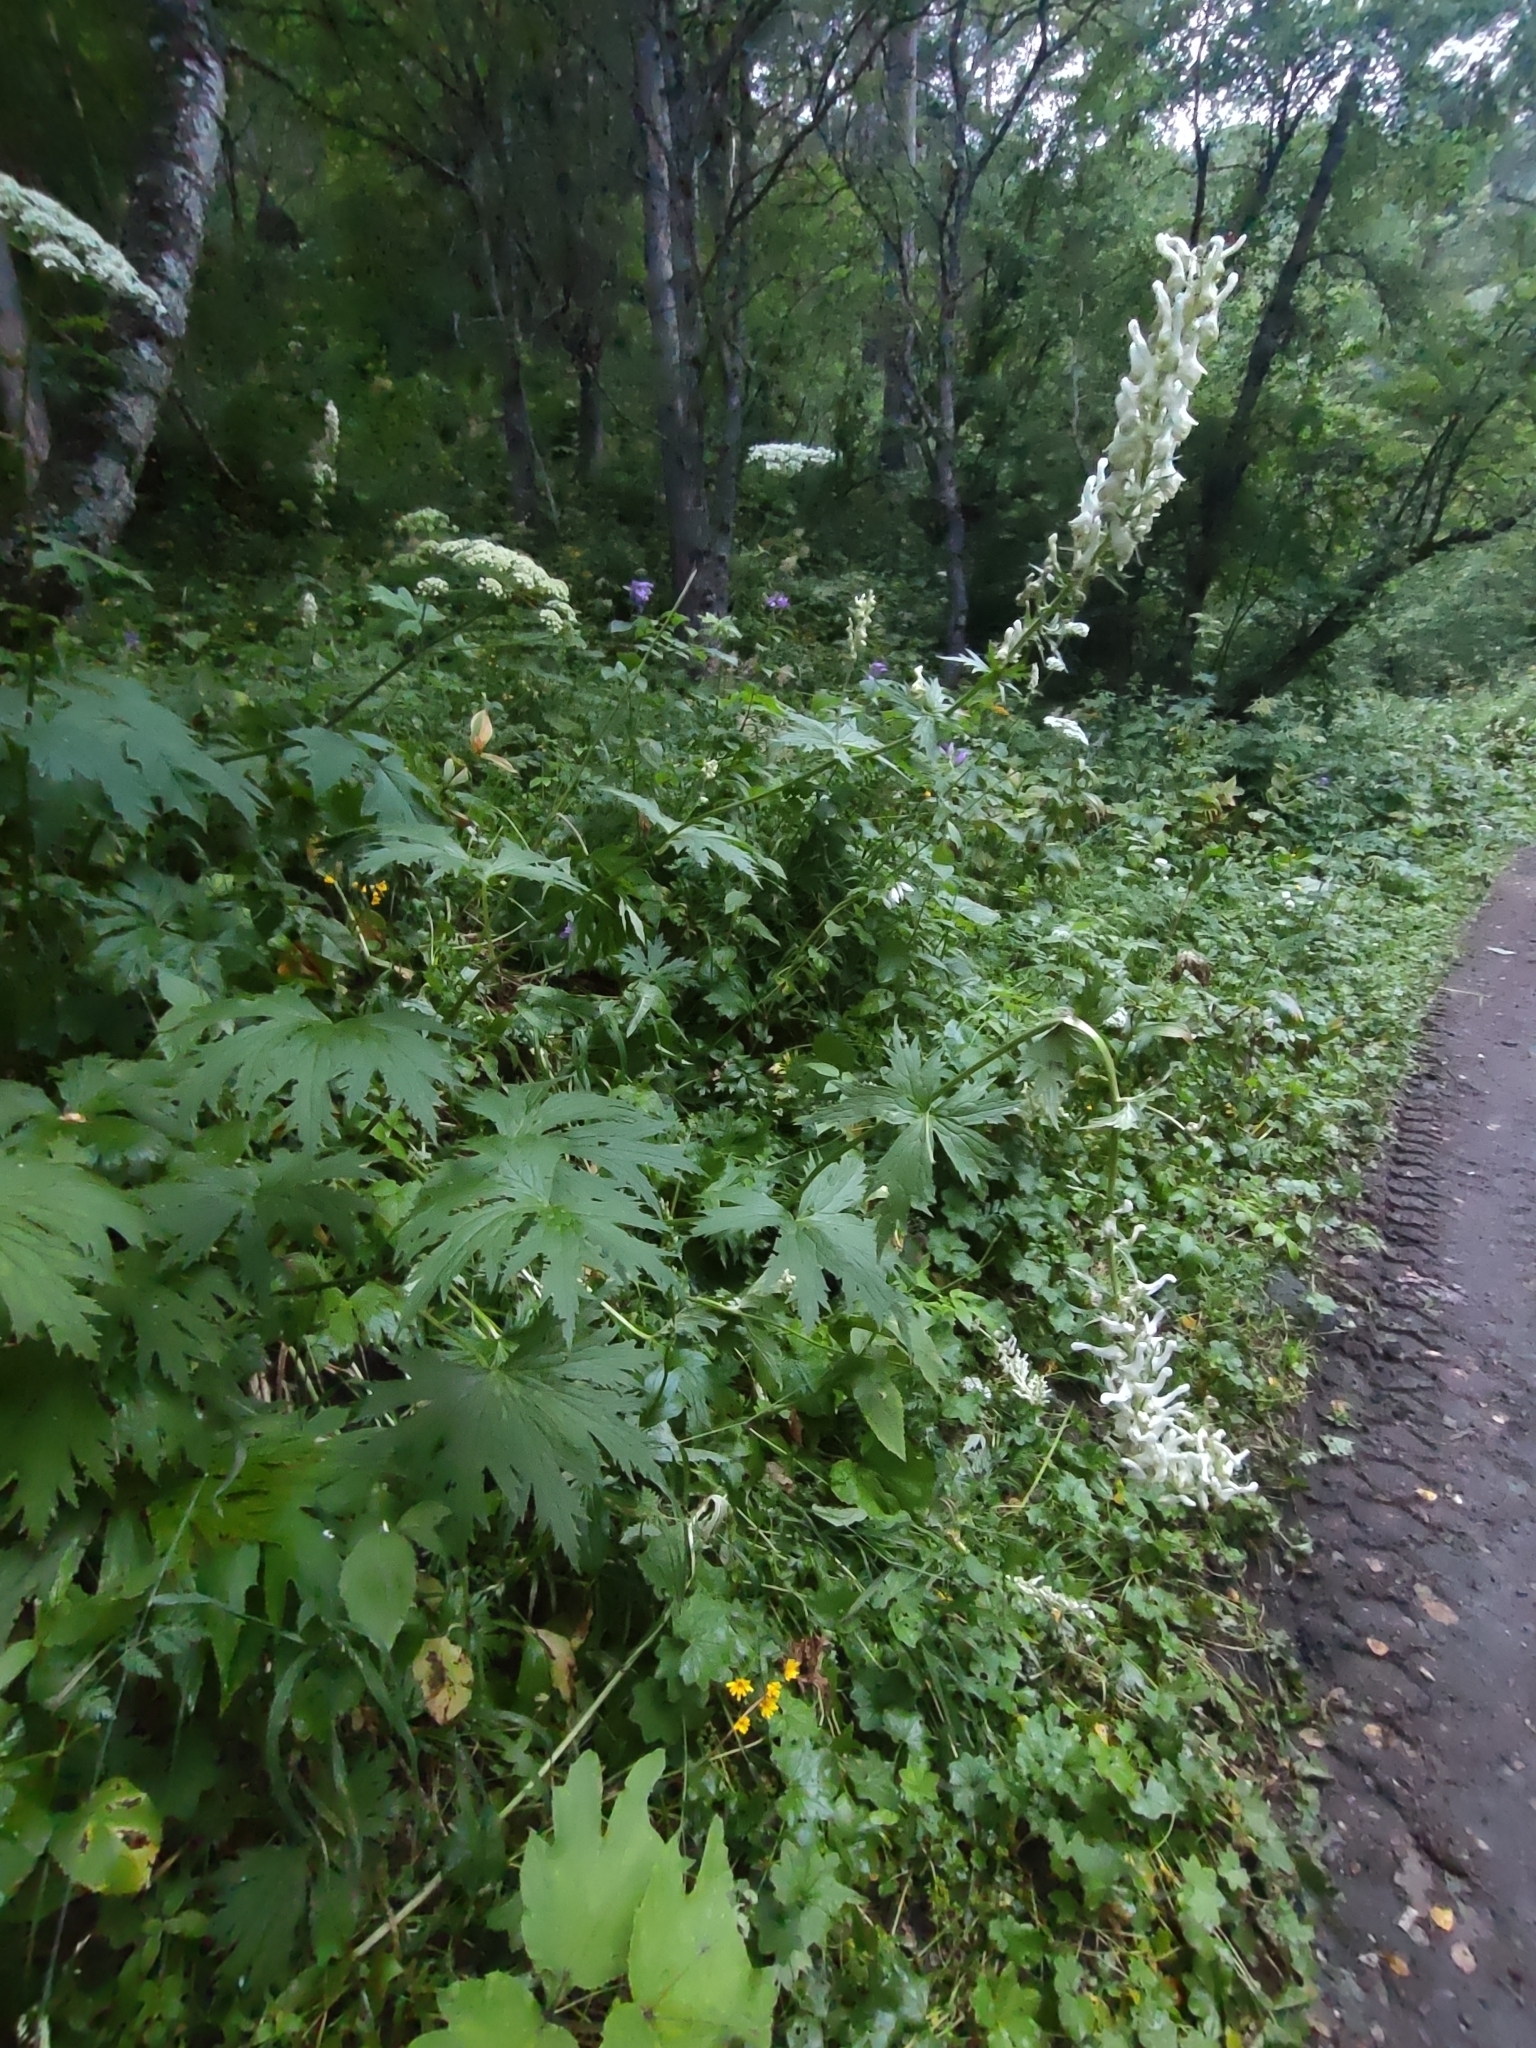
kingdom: Plantae
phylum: Tracheophyta
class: Magnoliopsida
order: Ranunculales
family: Ranunculaceae
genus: Aconitum
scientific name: Aconitum orientale
